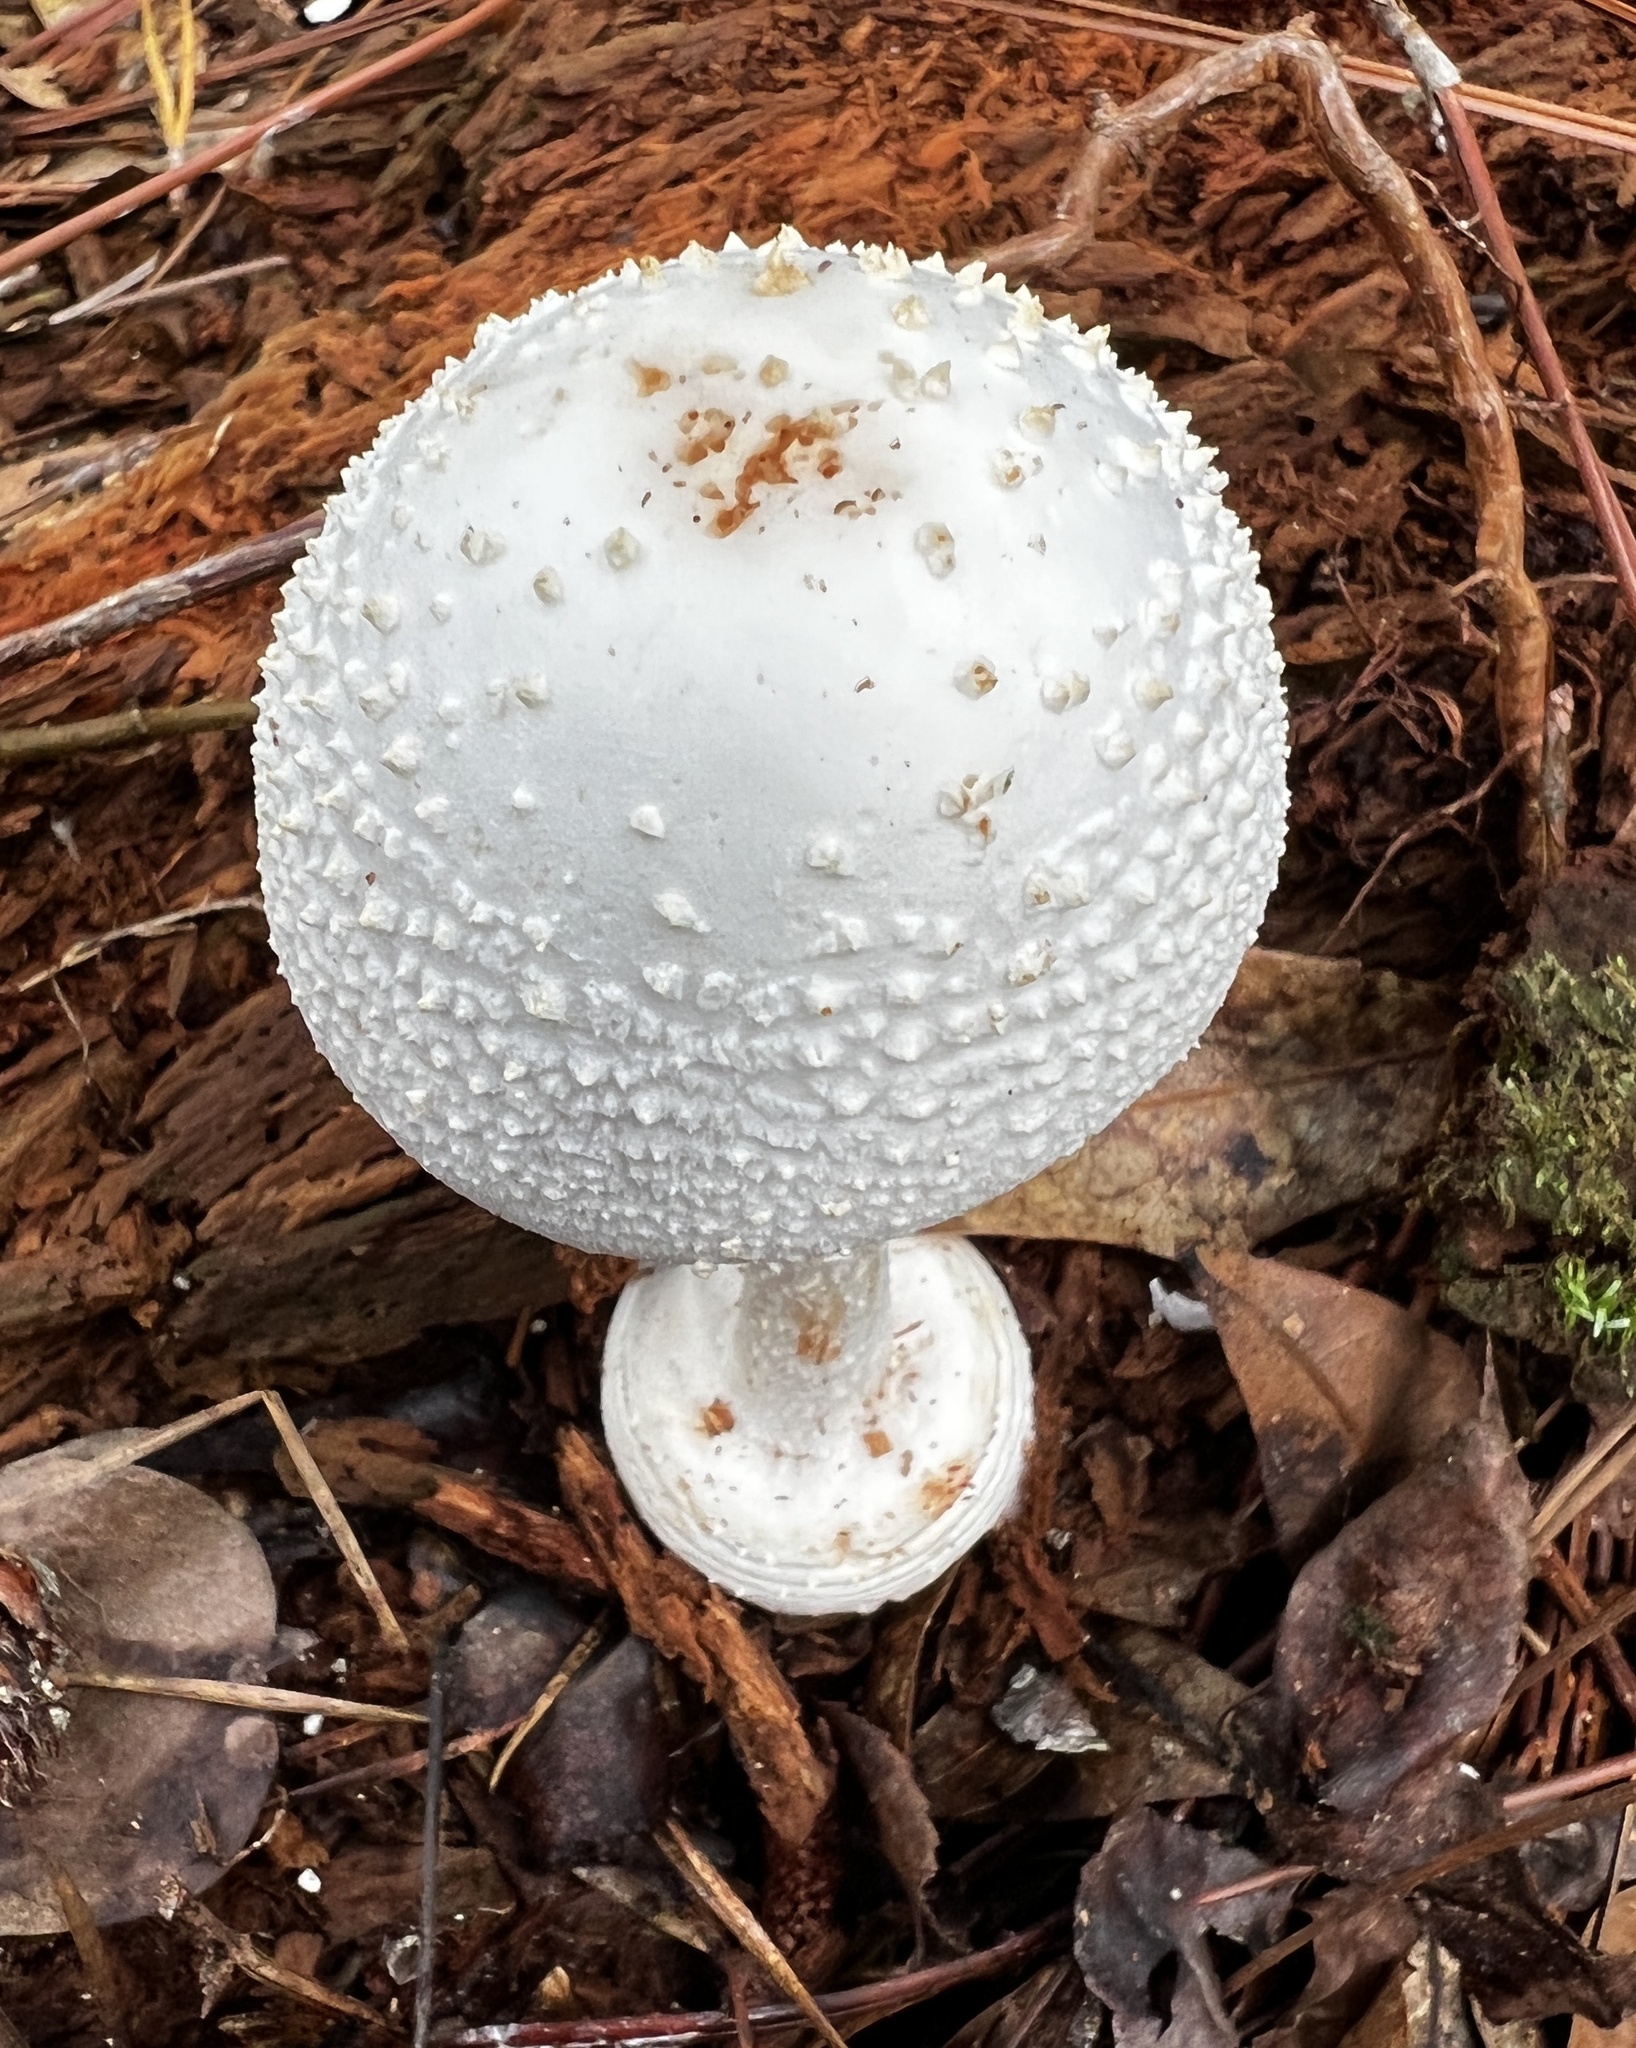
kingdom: Fungi
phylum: Basidiomycota
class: Agaricomycetes
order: Agaricales
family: Amanitaceae
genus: Amanita
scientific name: Amanita abrupta
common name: American abrupt-bulbed lepidella
